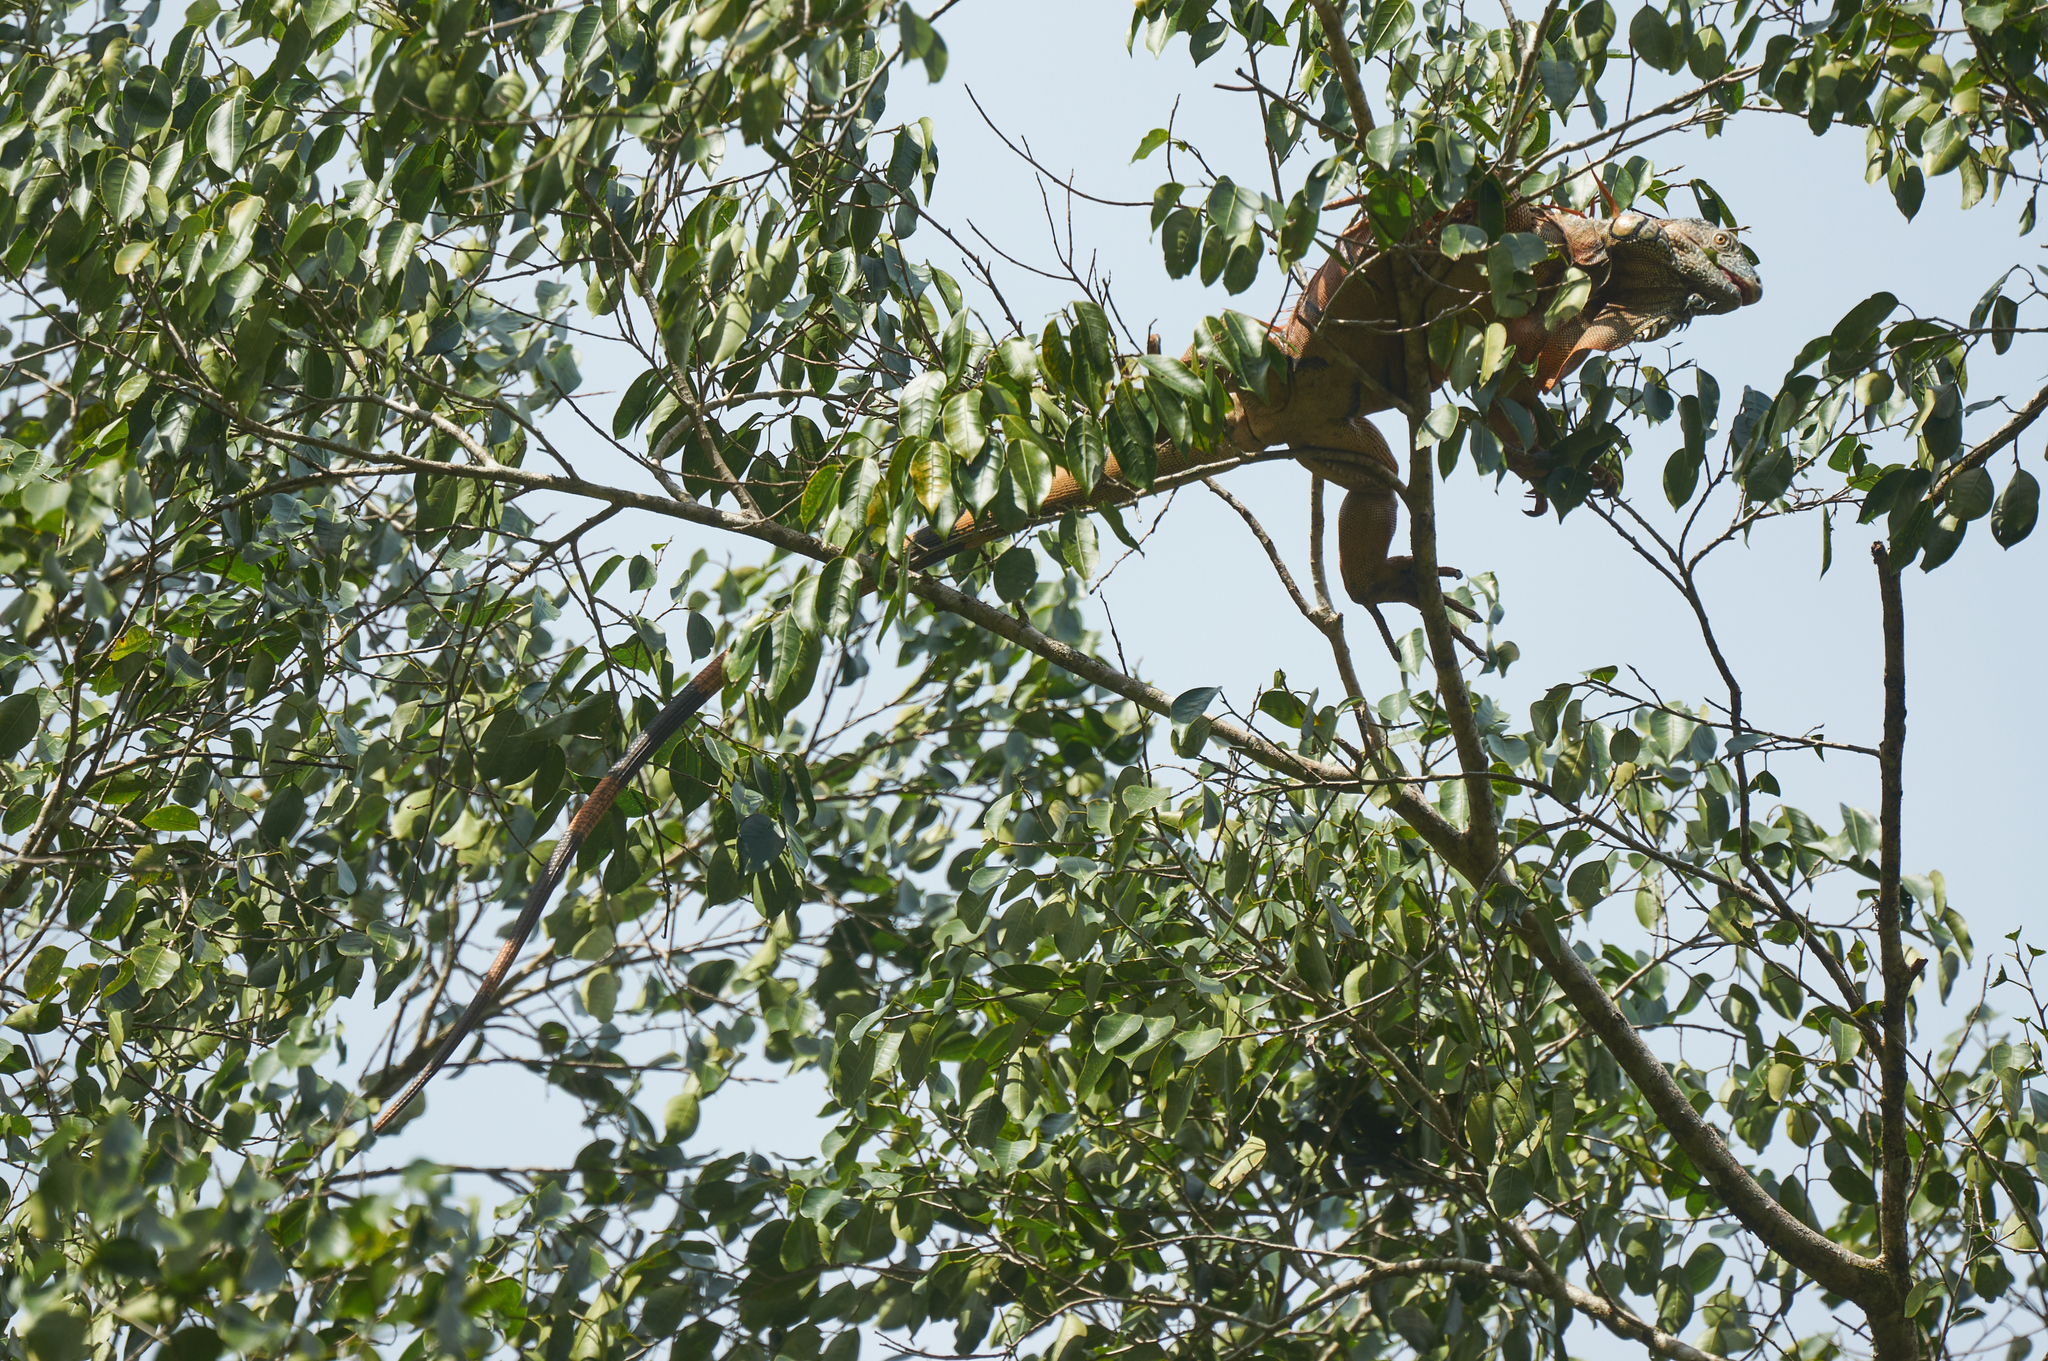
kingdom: Animalia
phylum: Chordata
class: Squamata
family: Iguanidae
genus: Iguana
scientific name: Iguana iguana
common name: Green iguana
